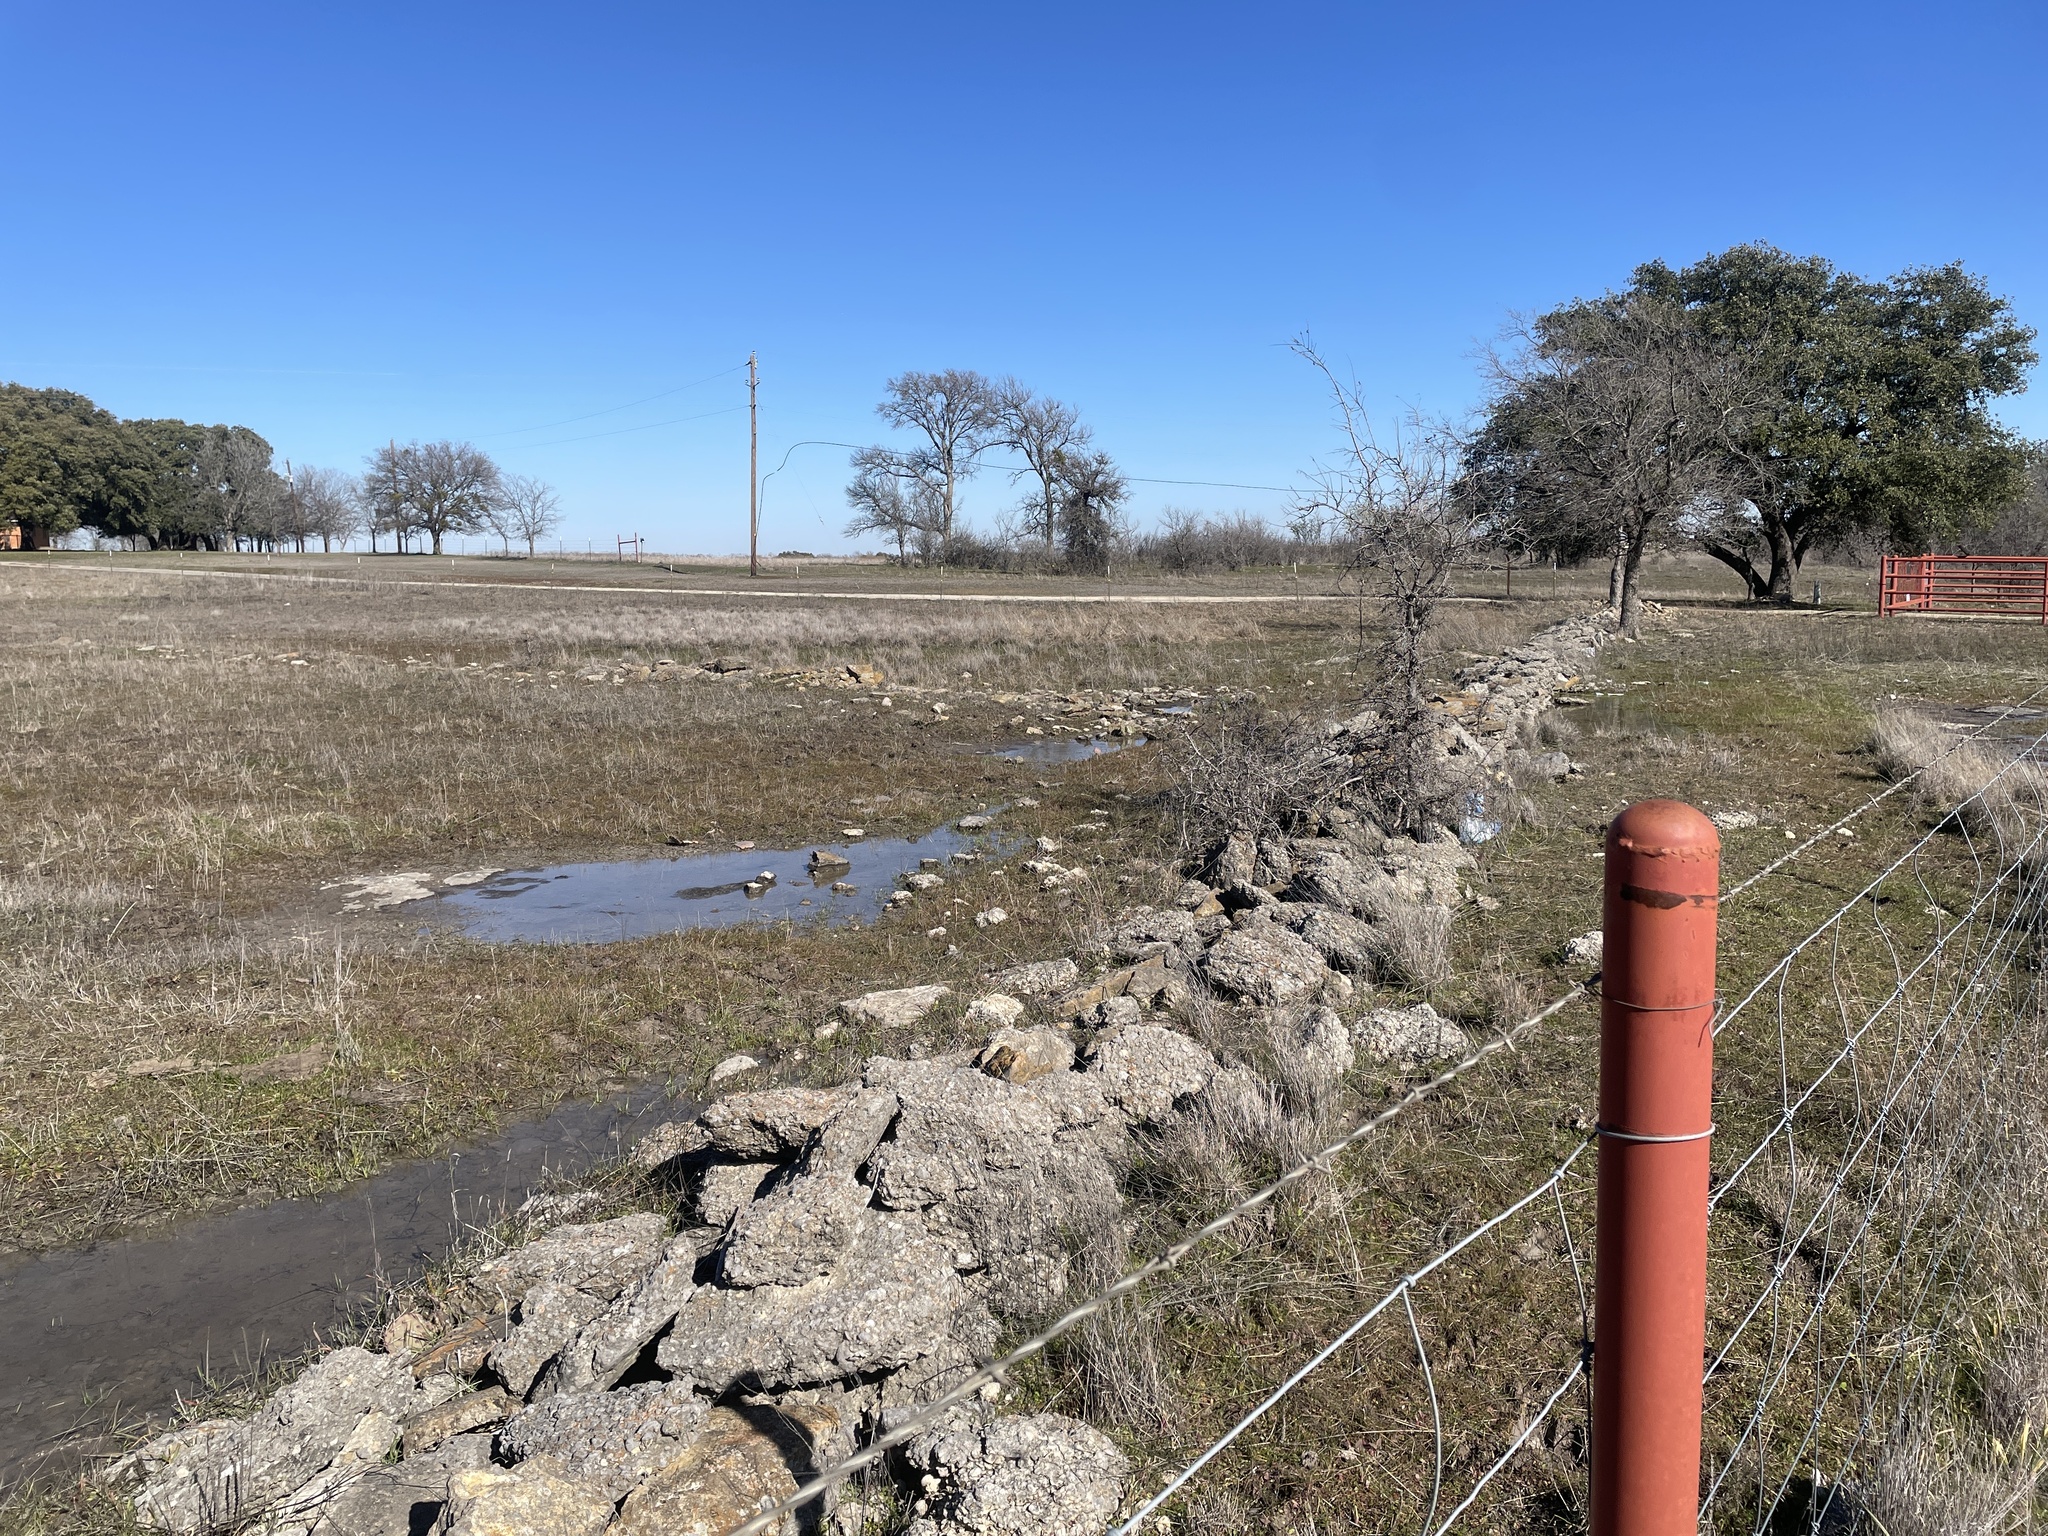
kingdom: Animalia
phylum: Chordata
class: Amphibia
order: Anura
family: Hylidae
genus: Pseudacris
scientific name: Pseudacris streckeri
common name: Strecker's chorus frog
